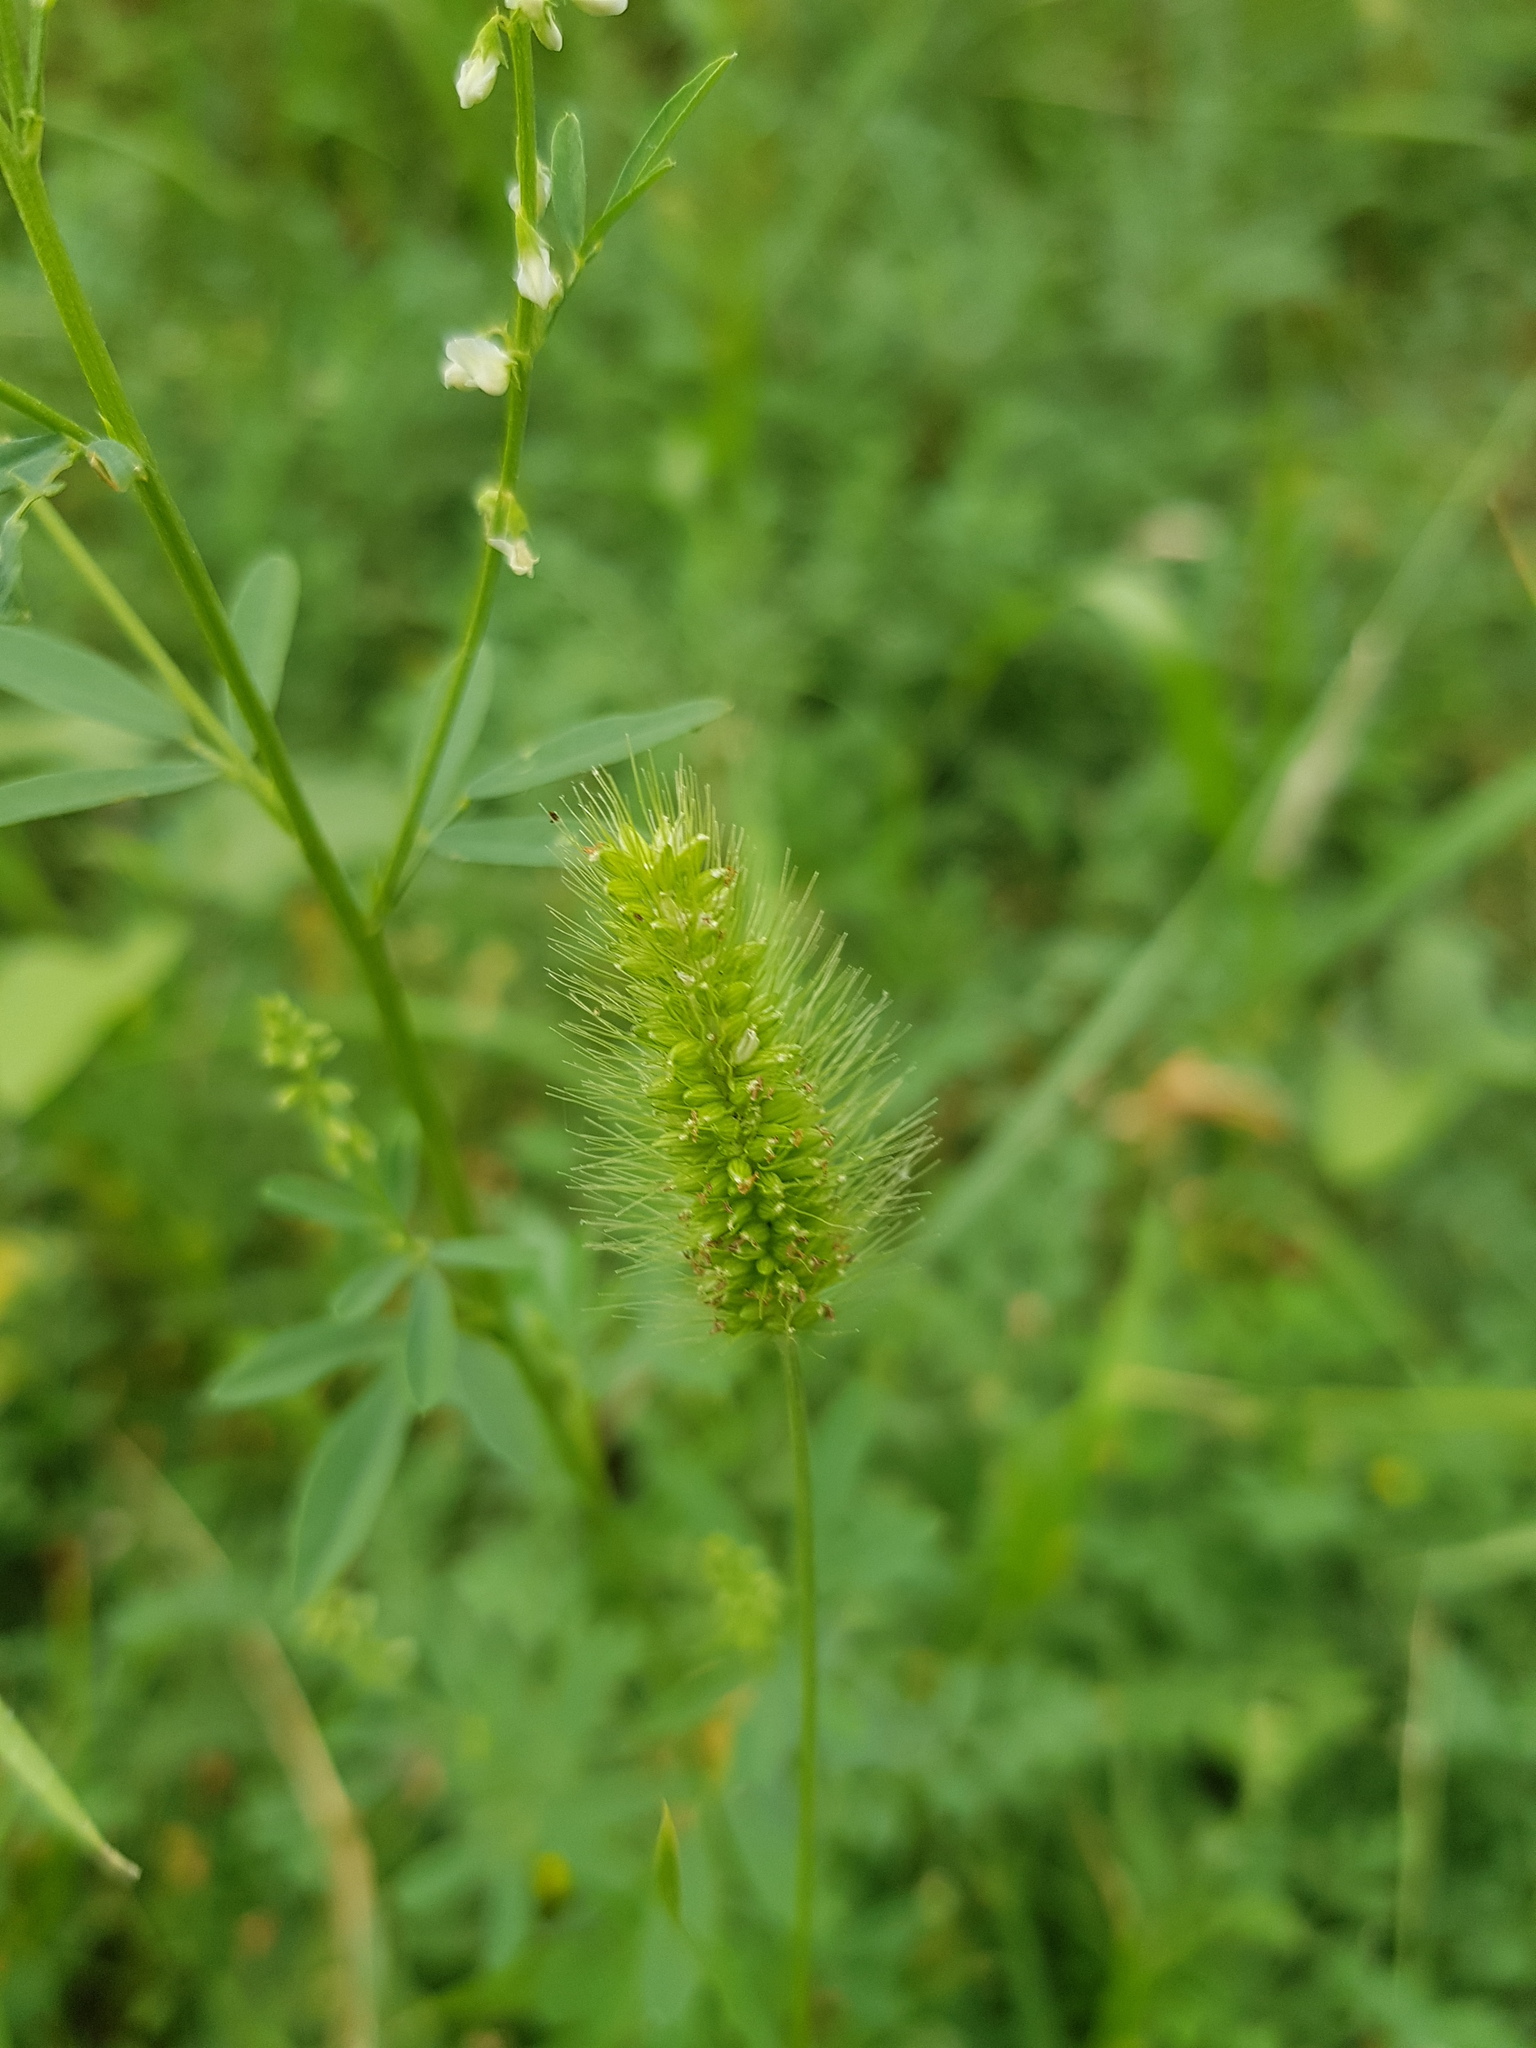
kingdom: Plantae
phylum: Tracheophyta
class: Liliopsida
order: Poales
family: Poaceae
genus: Setaria
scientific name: Setaria viridis
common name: Green bristlegrass
